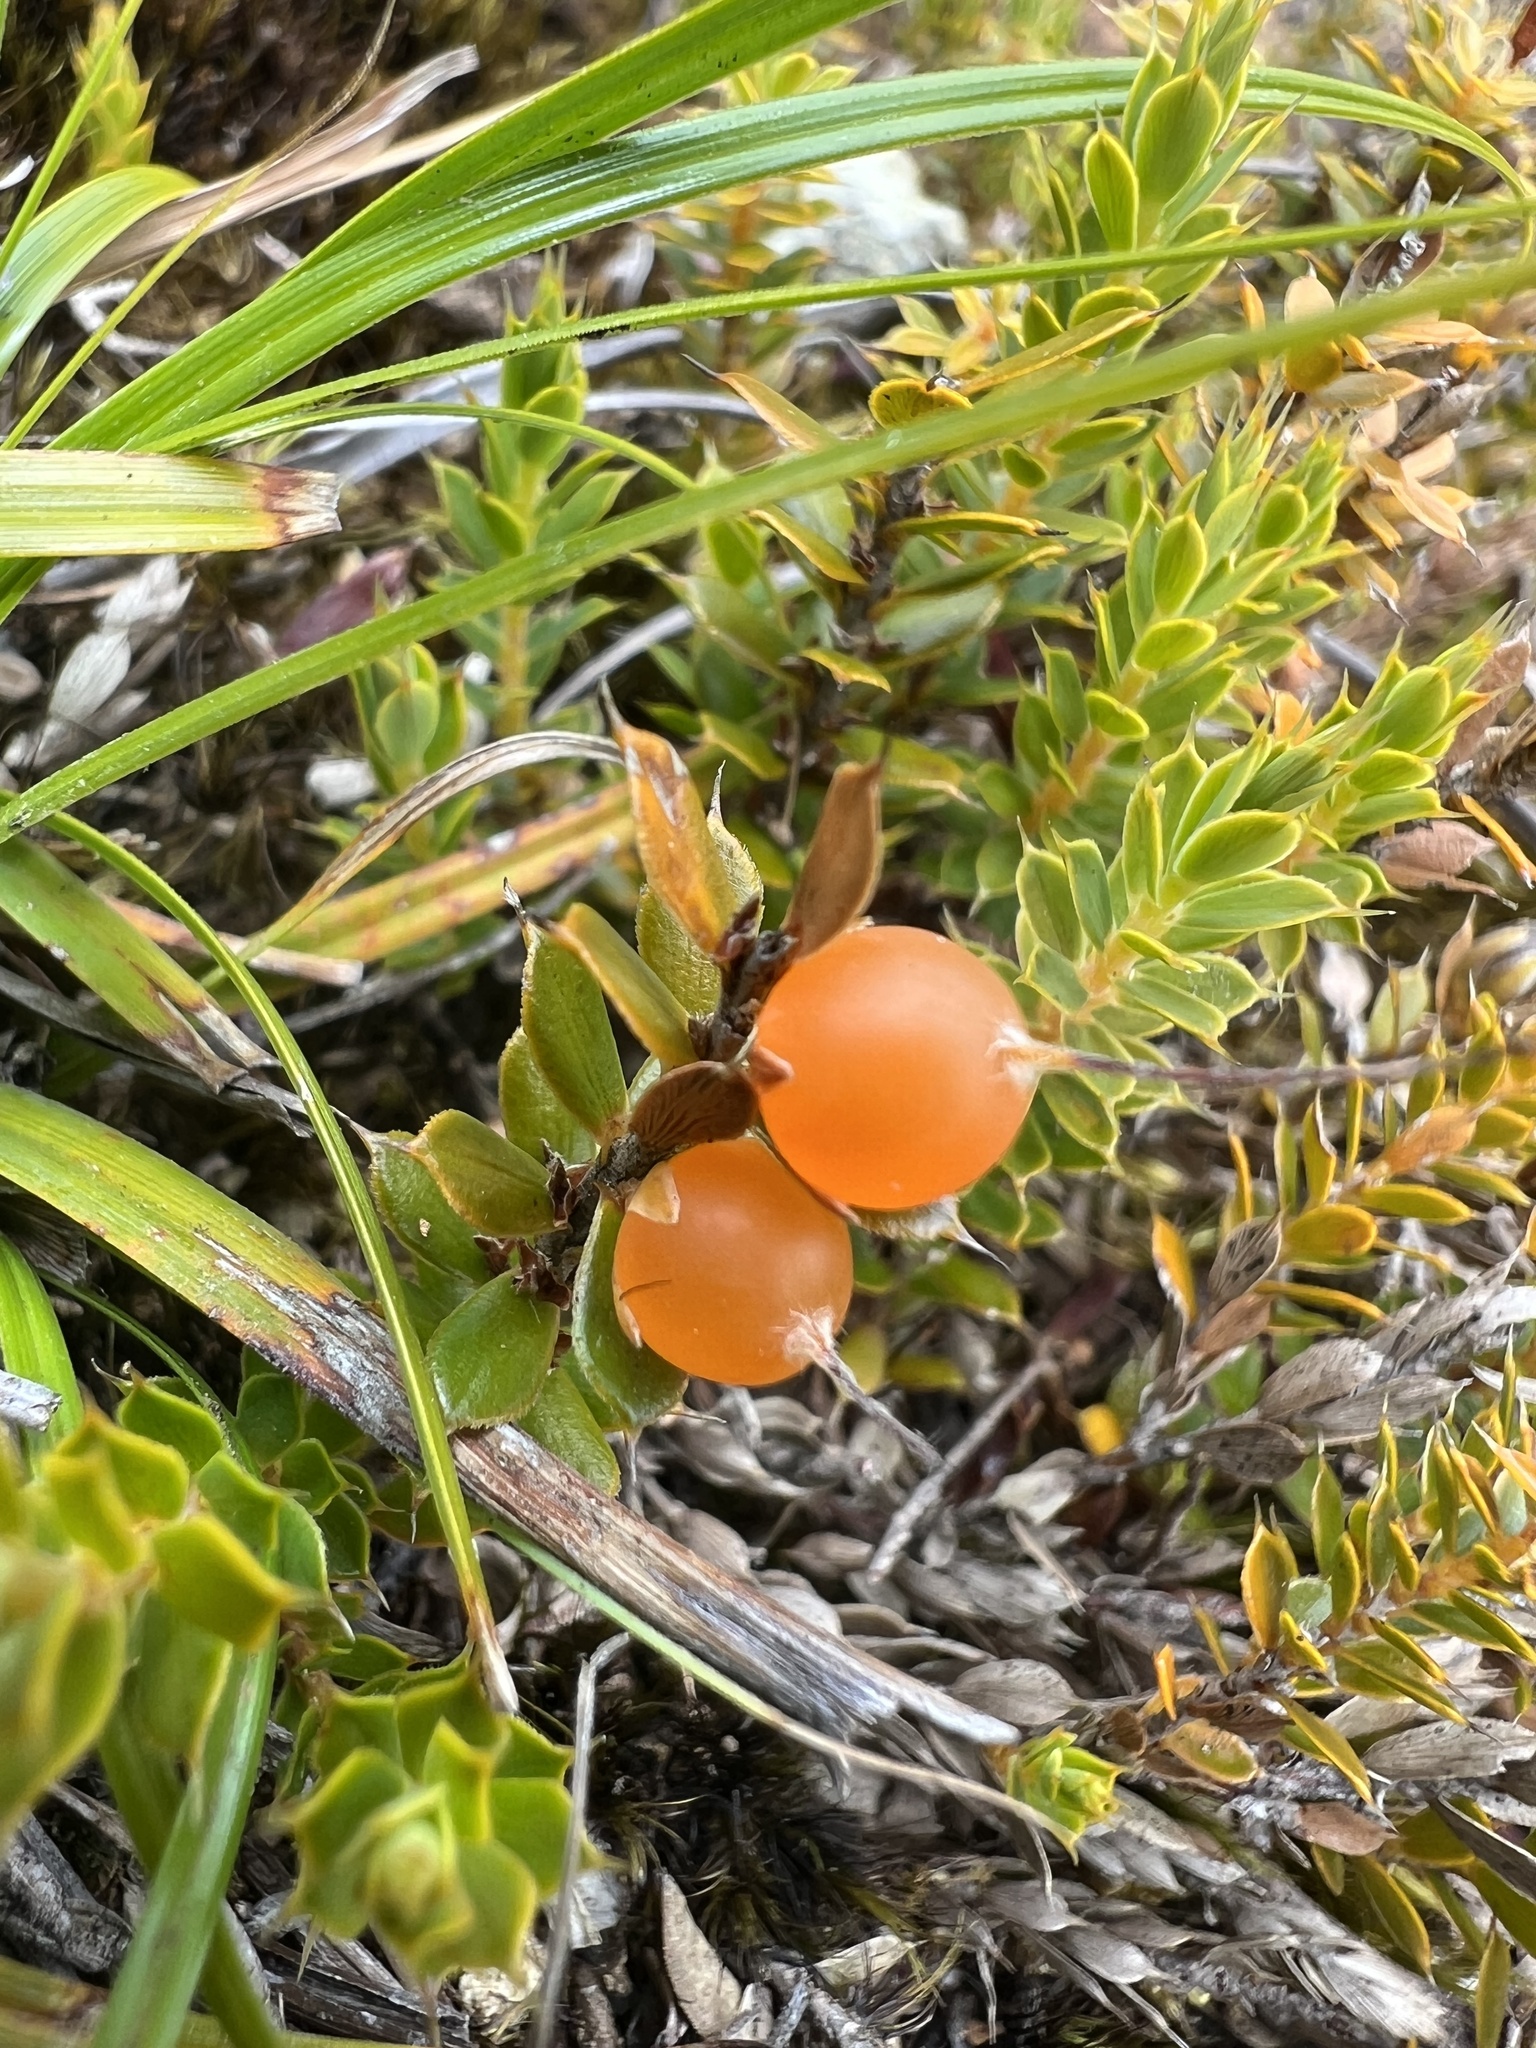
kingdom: Plantae
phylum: Tracheophyta
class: Magnoliopsida
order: Ericales
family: Ericaceae
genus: Styphelia
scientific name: Styphelia nesophila
